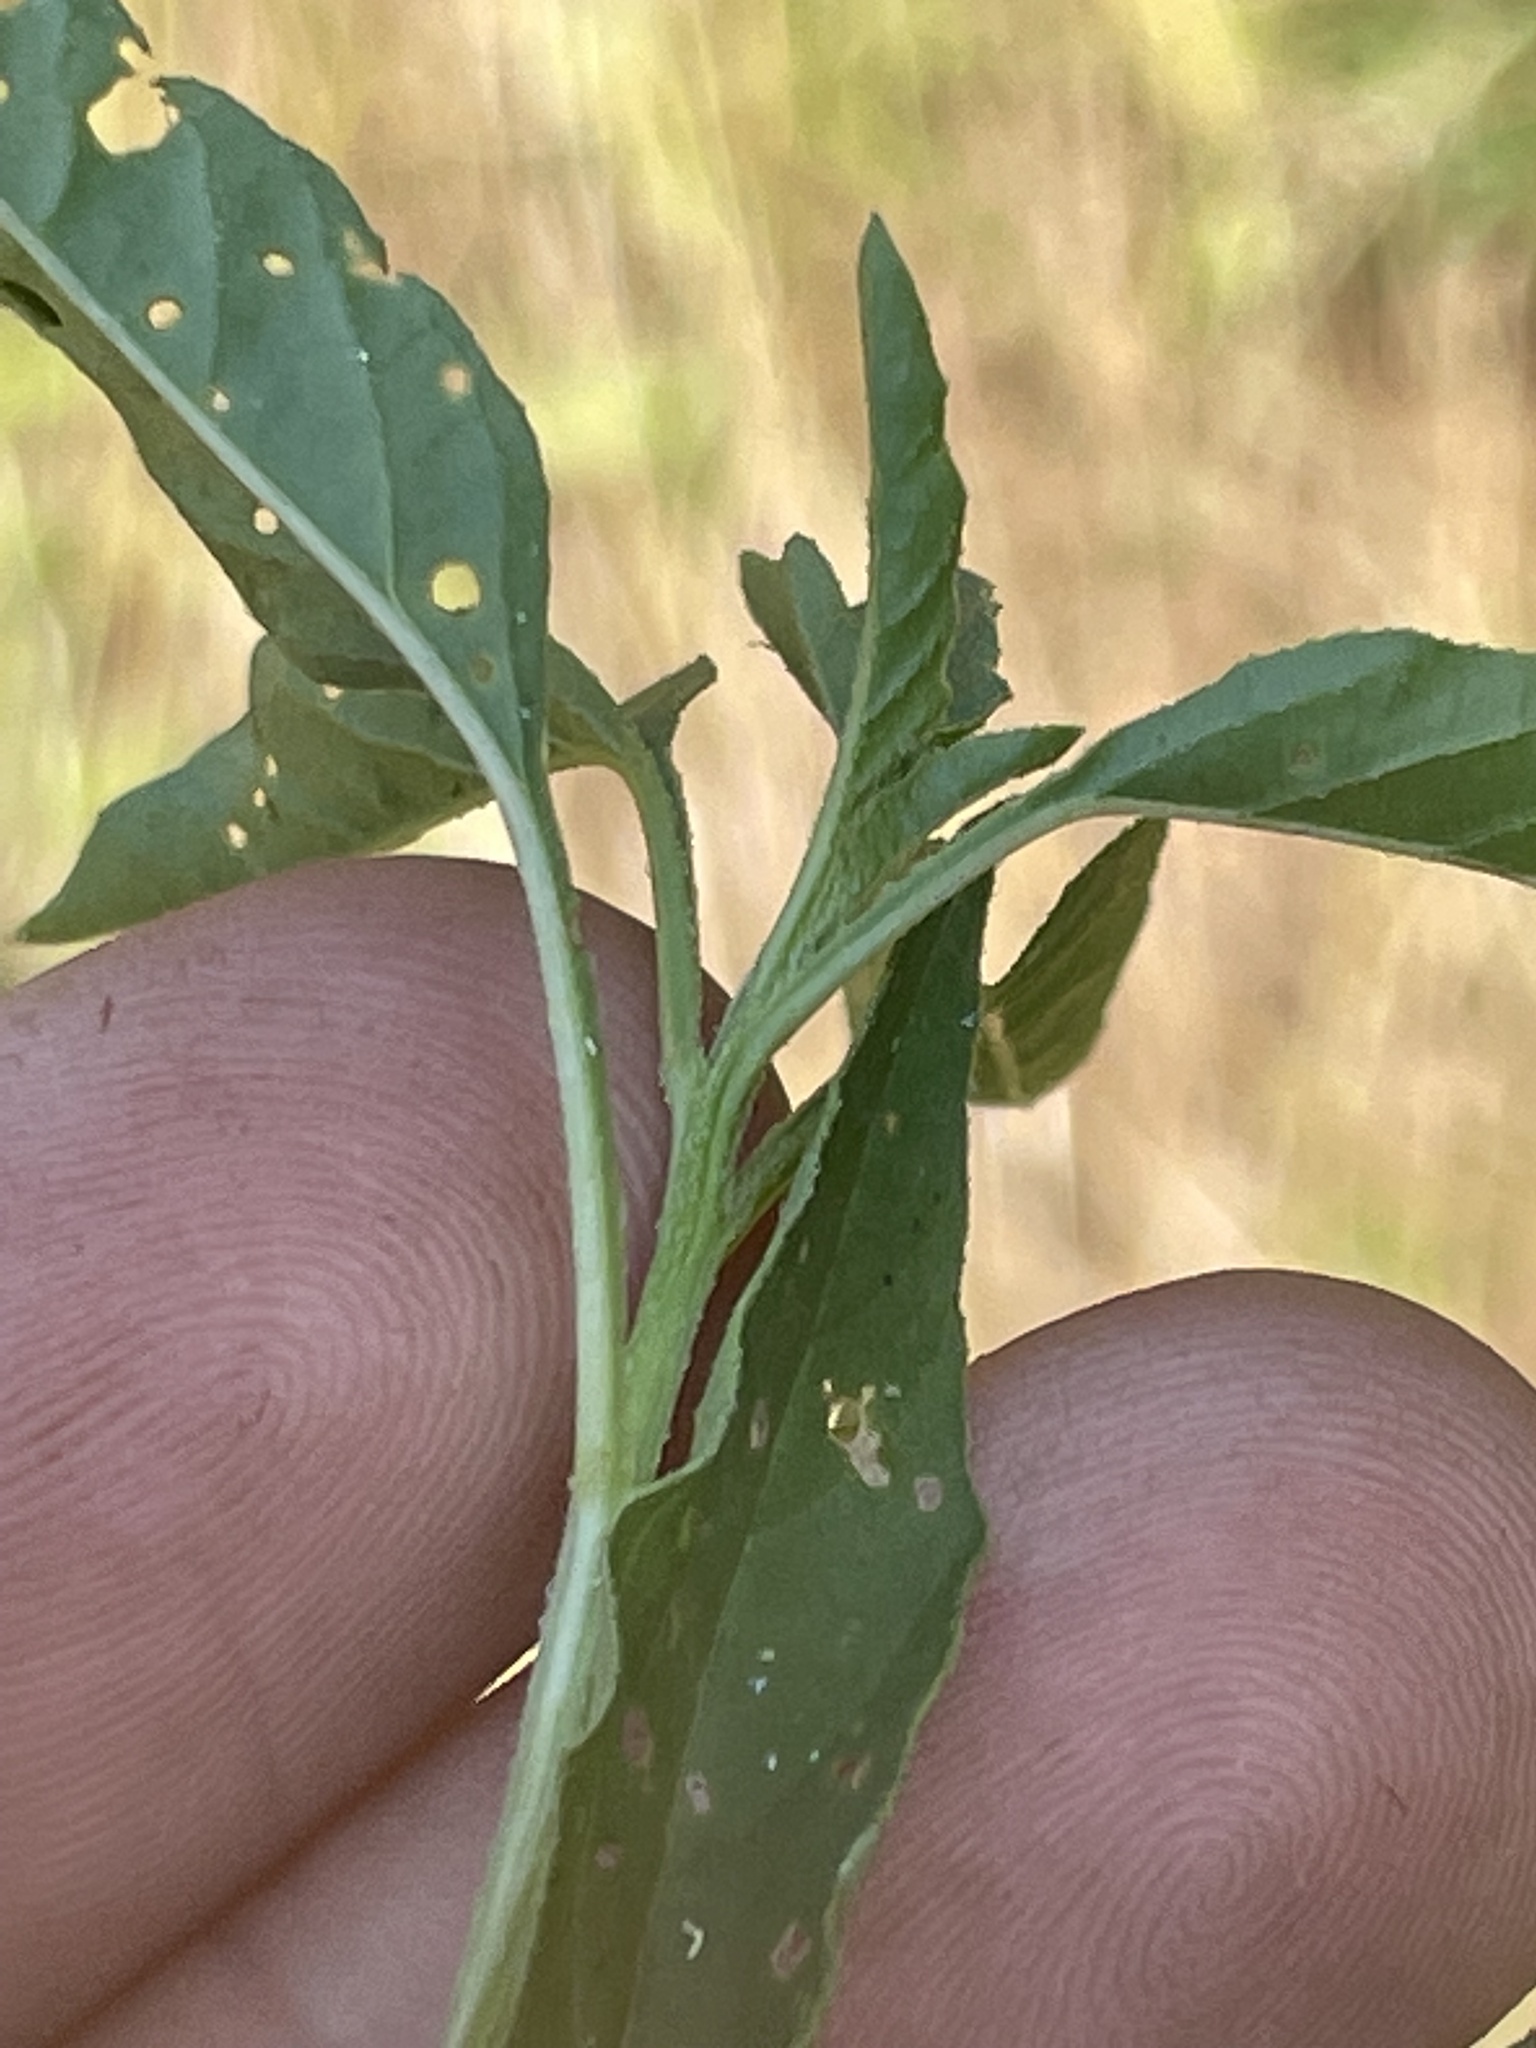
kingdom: Plantae
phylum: Tracheophyta
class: Magnoliopsida
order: Solanales
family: Solanaceae
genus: Physalis
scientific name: Physalis longifolia
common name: Common ground-cherry
